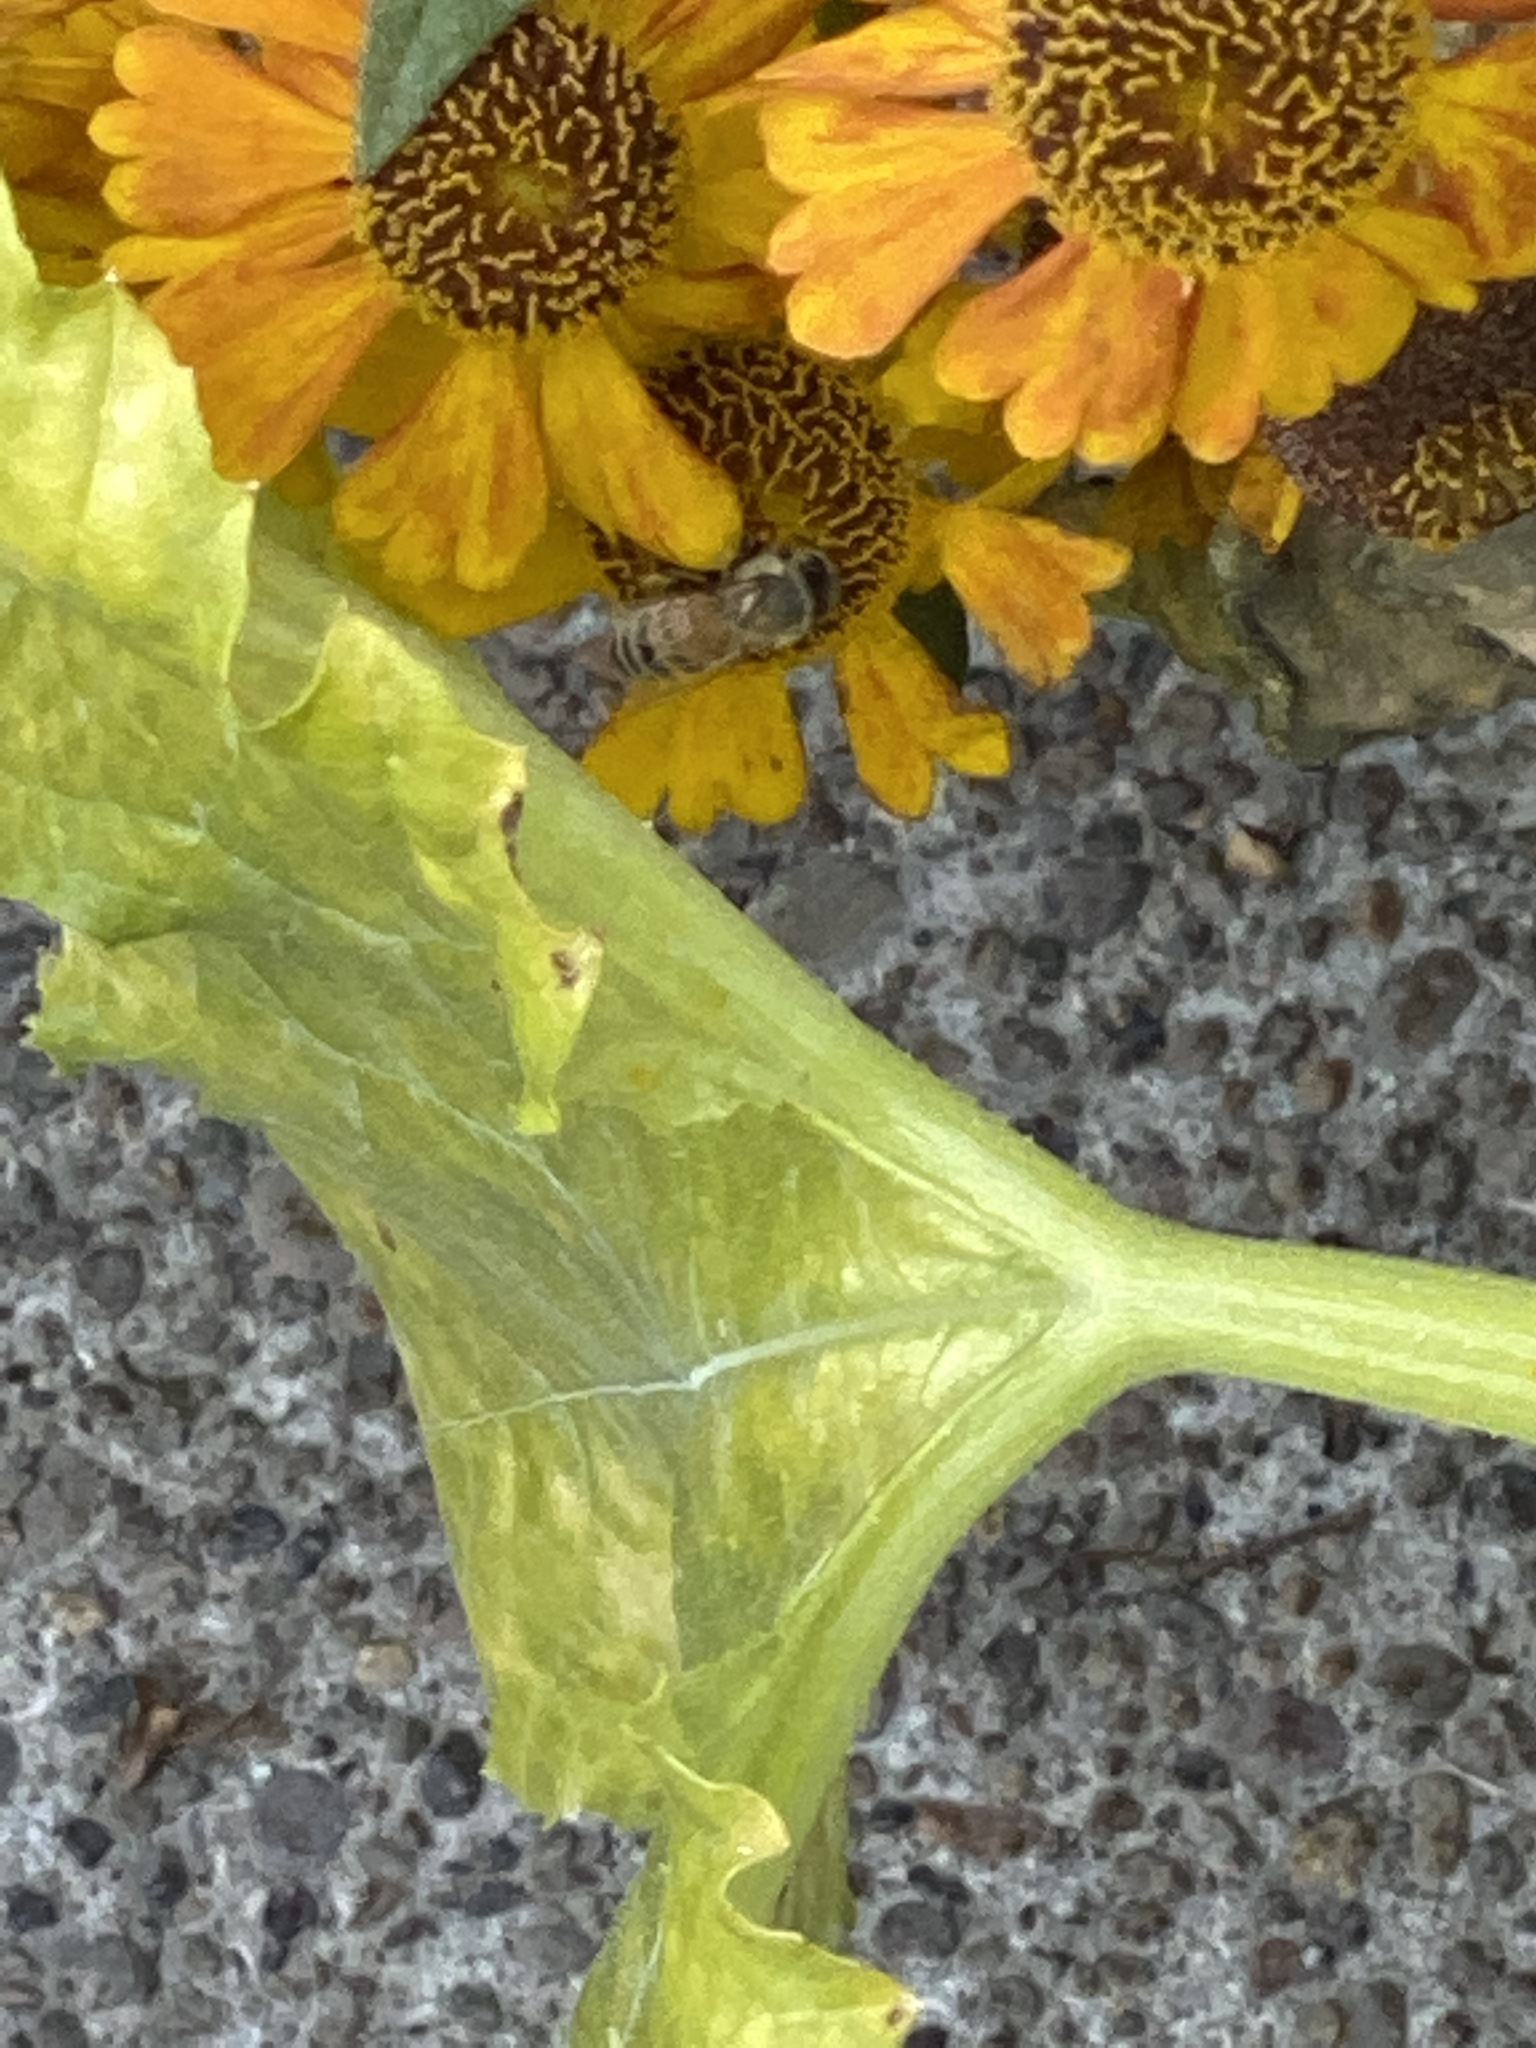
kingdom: Animalia
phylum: Arthropoda
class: Insecta
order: Hymenoptera
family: Apidae
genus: Apis
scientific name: Apis mellifera
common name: Honey bee
